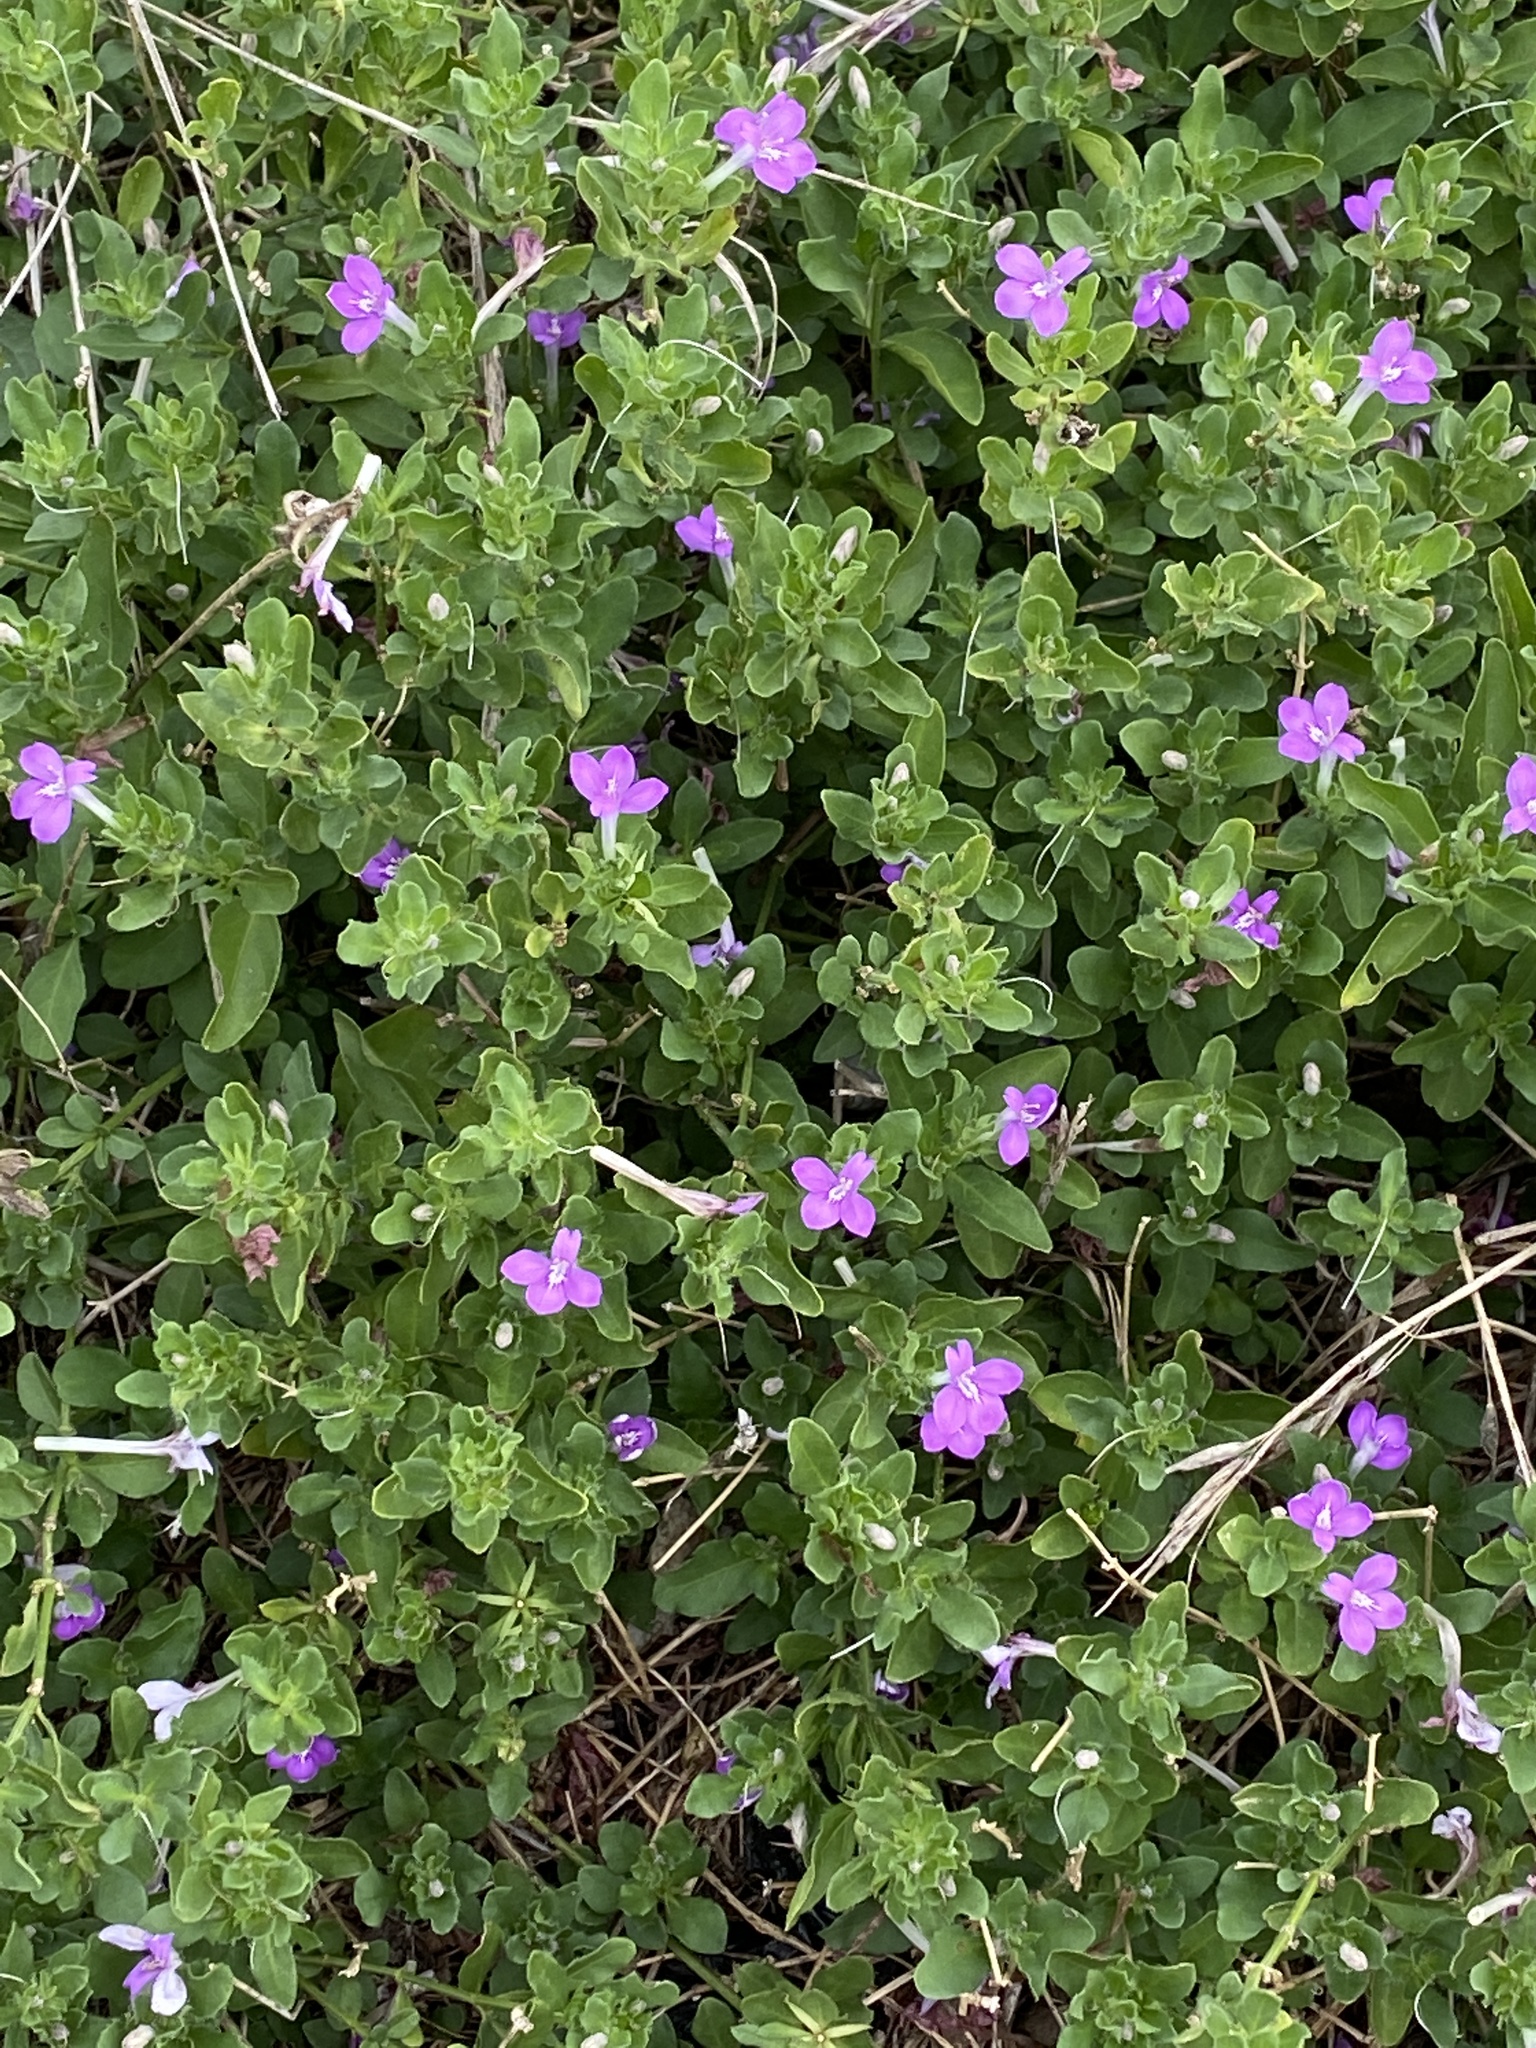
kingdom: Plantae
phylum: Tracheophyta
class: Magnoliopsida
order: Lamiales
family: Acanthaceae
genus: Justicia
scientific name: Justicia pilosella
